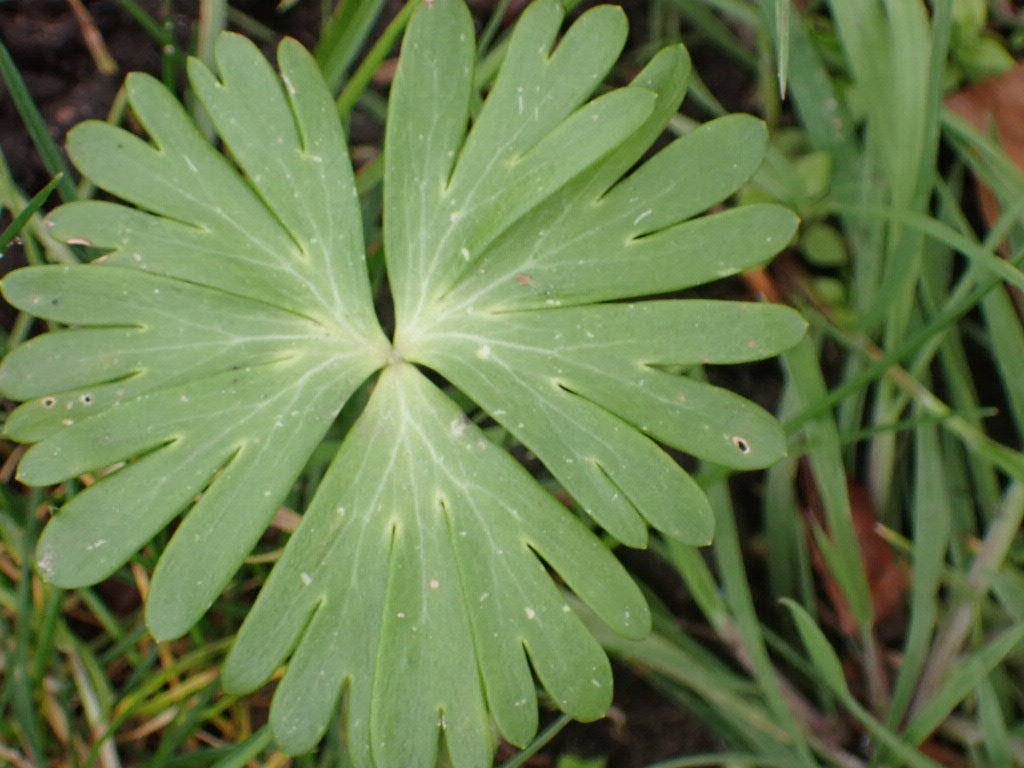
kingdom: Plantae
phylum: Tracheophyta
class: Magnoliopsida
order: Ranunculales
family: Ranunculaceae
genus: Eranthis
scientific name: Eranthis hyemalis
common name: Winter aconite
